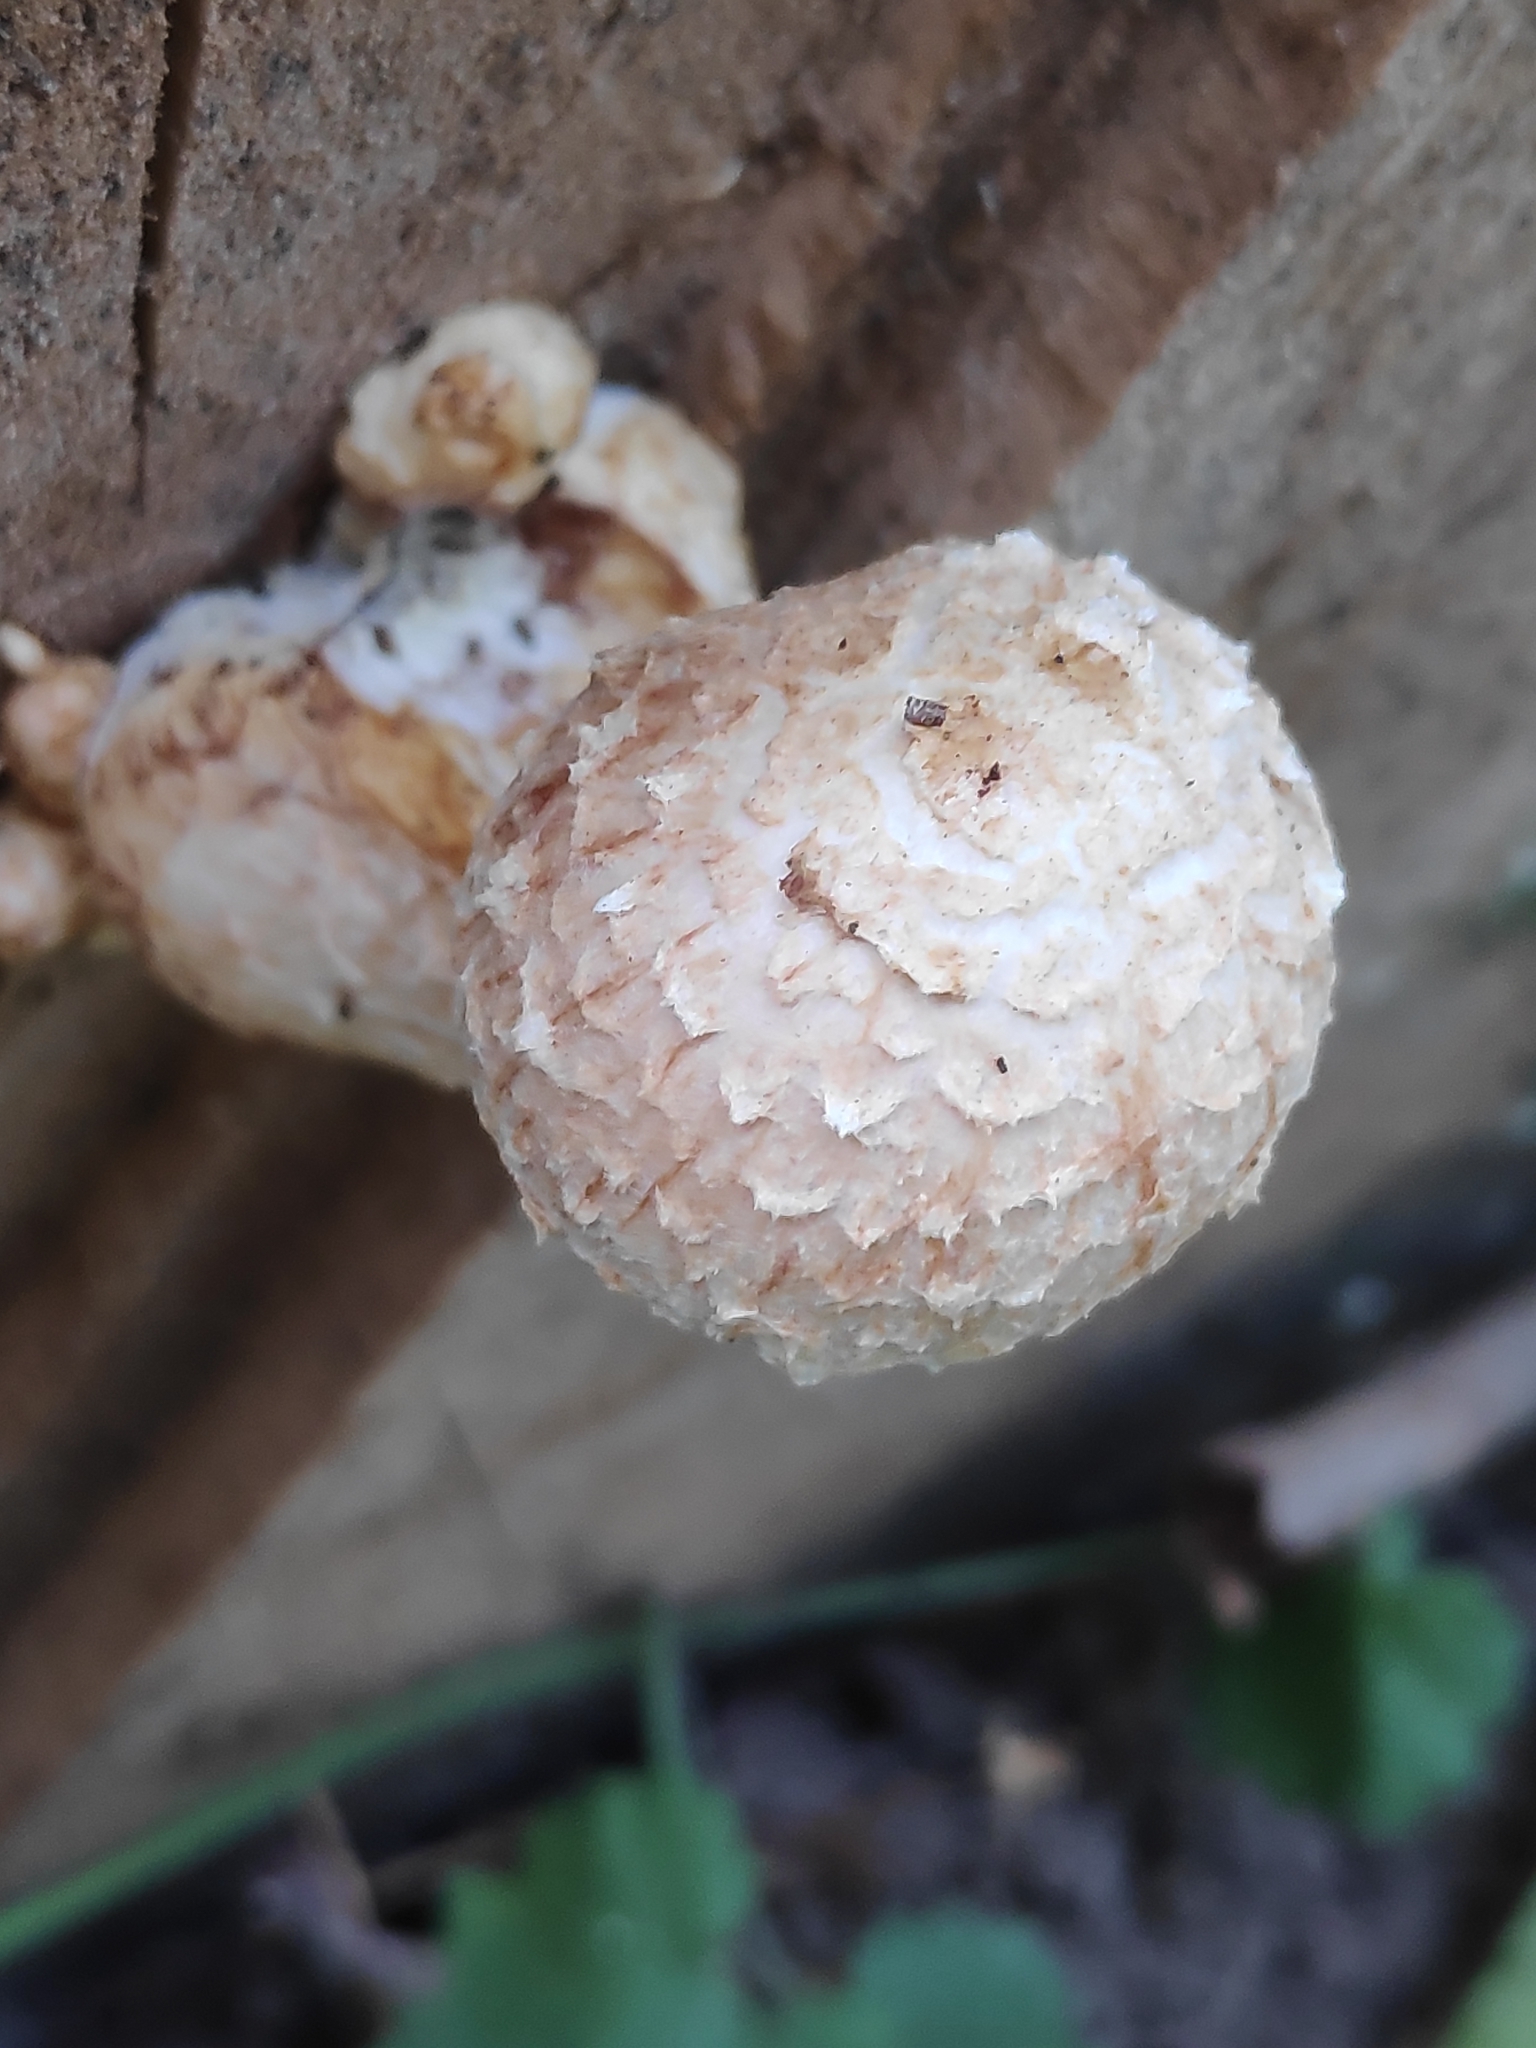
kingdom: Fungi
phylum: Basidiomycota
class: Agaricomycetes
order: Agaricales
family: Strophariaceae
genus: Pholiota
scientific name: Pholiota populnea
